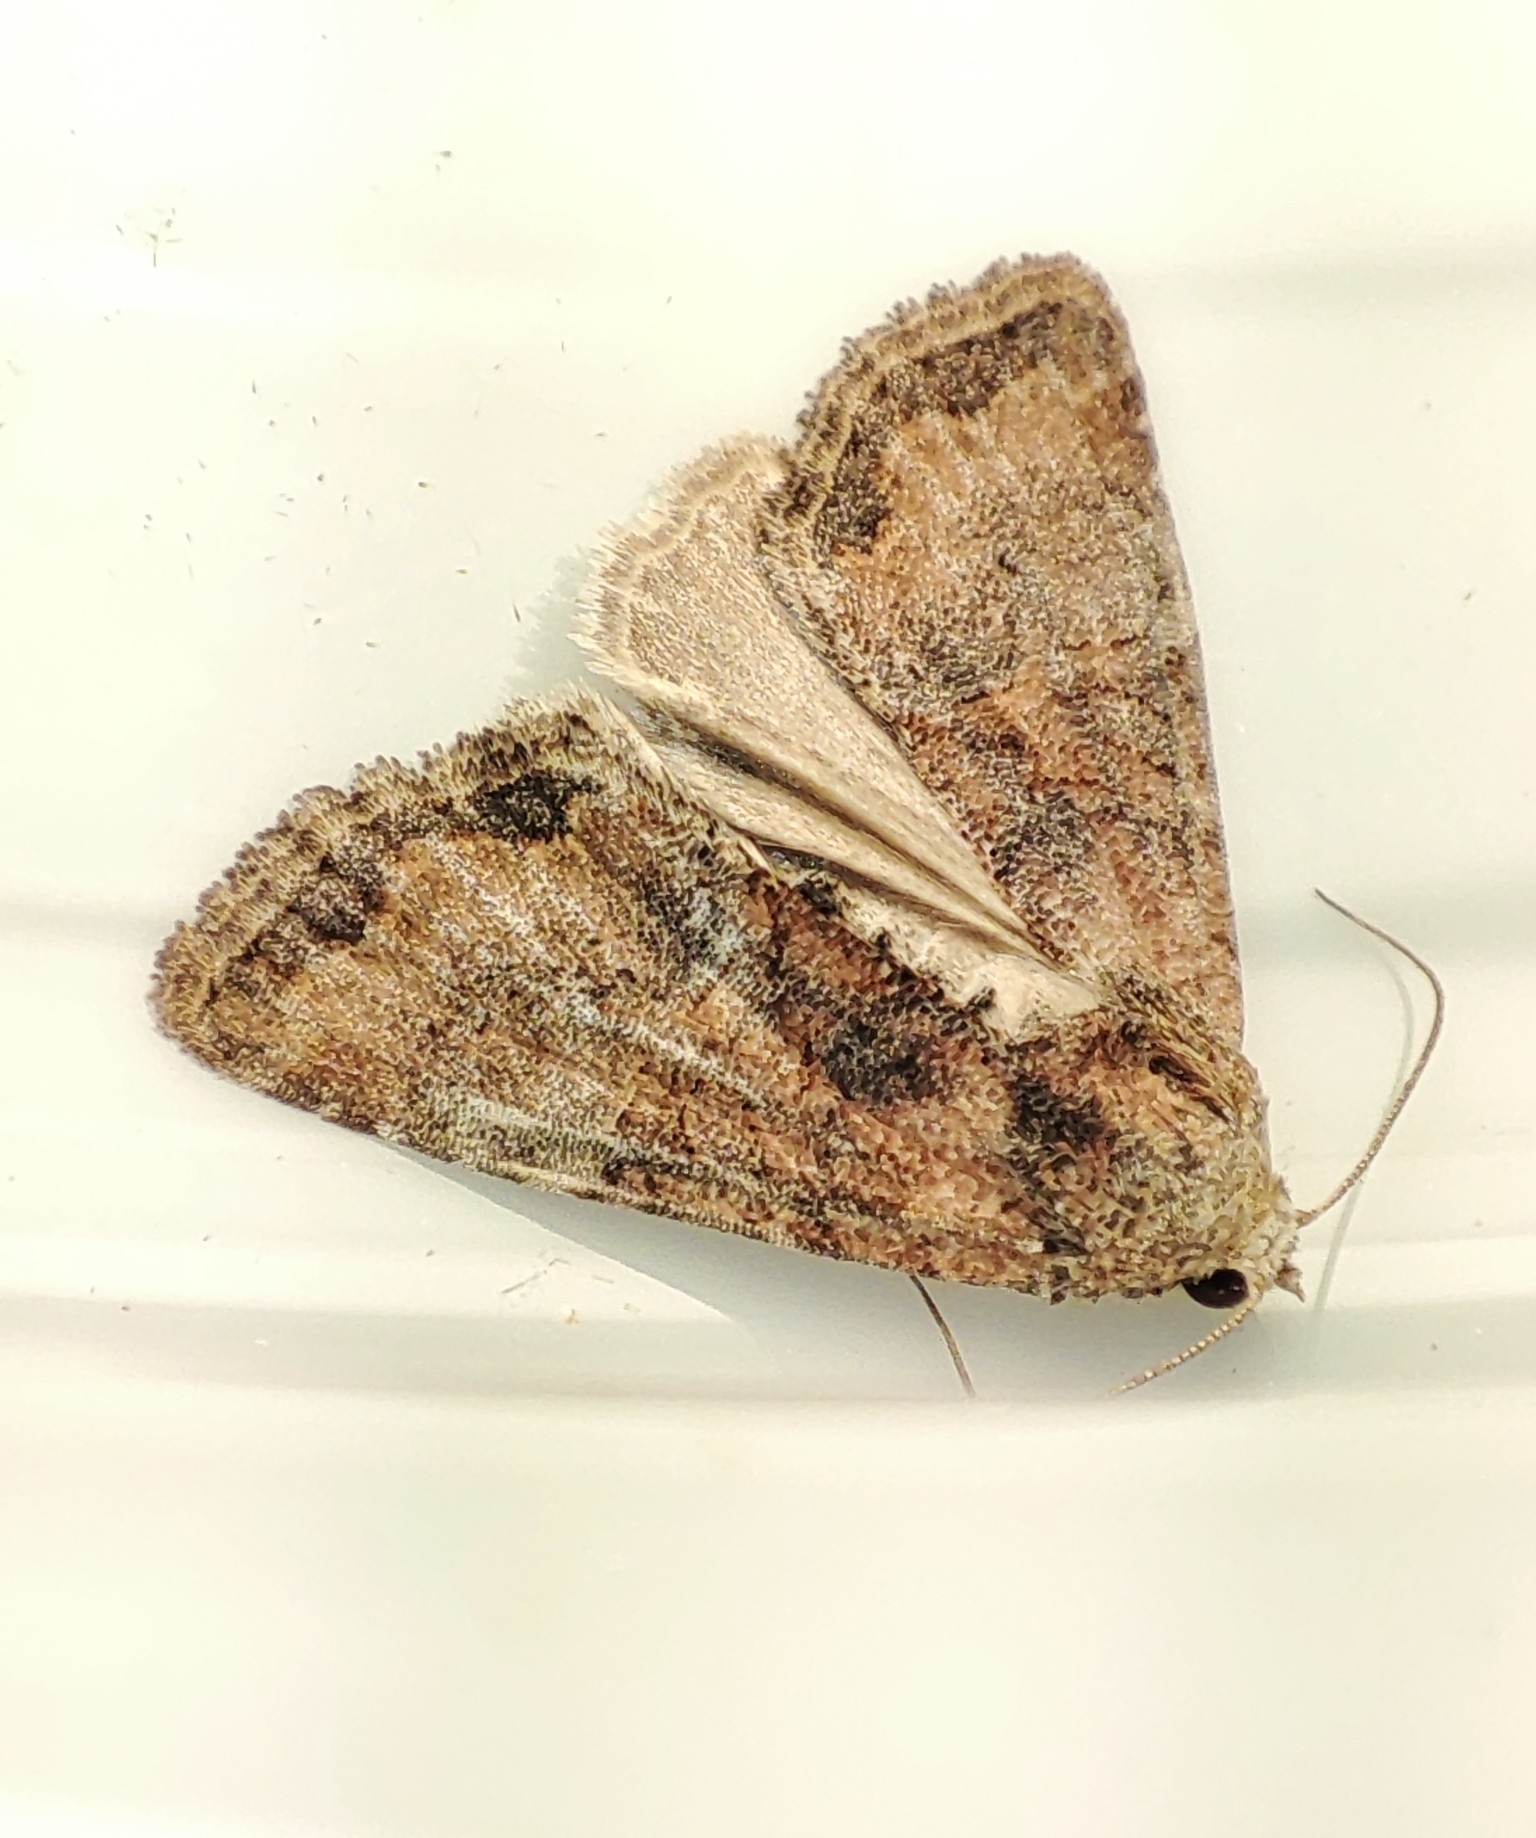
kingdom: Animalia
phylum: Arthropoda
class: Insecta
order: Lepidoptera
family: Noctuidae
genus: Mesoligia
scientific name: Mesoligia furuncula
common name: Cloaked minor
